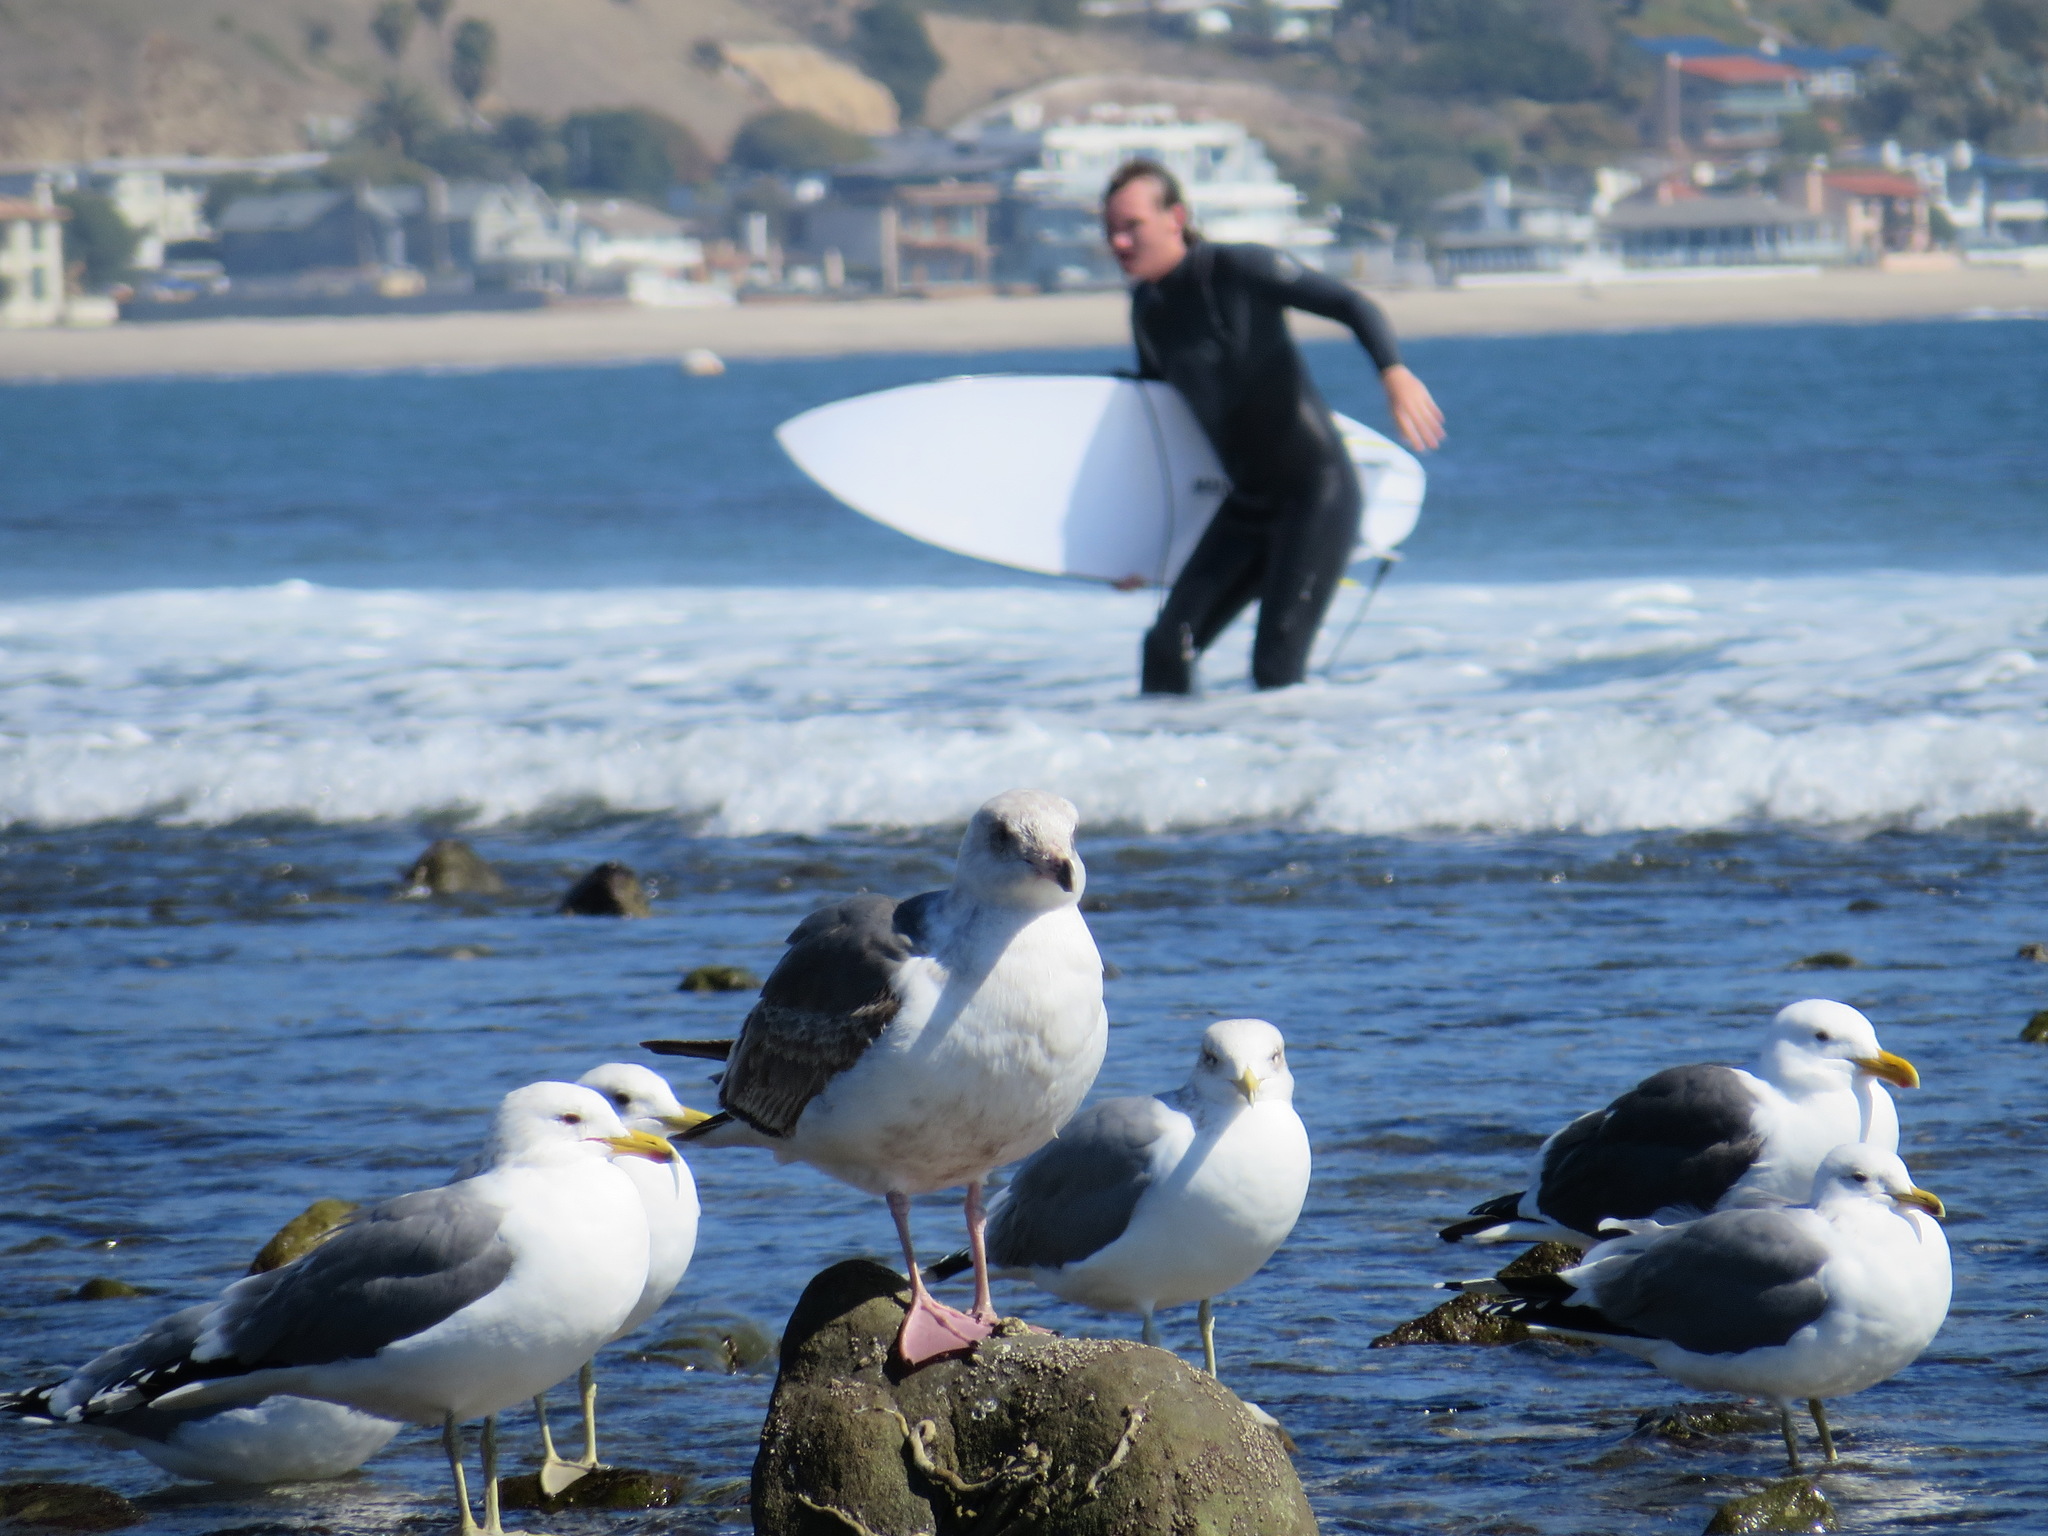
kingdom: Animalia
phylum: Chordata
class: Aves
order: Charadriiformes
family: Laridae
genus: Larus
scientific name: Larus occidentalis
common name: Western gull
